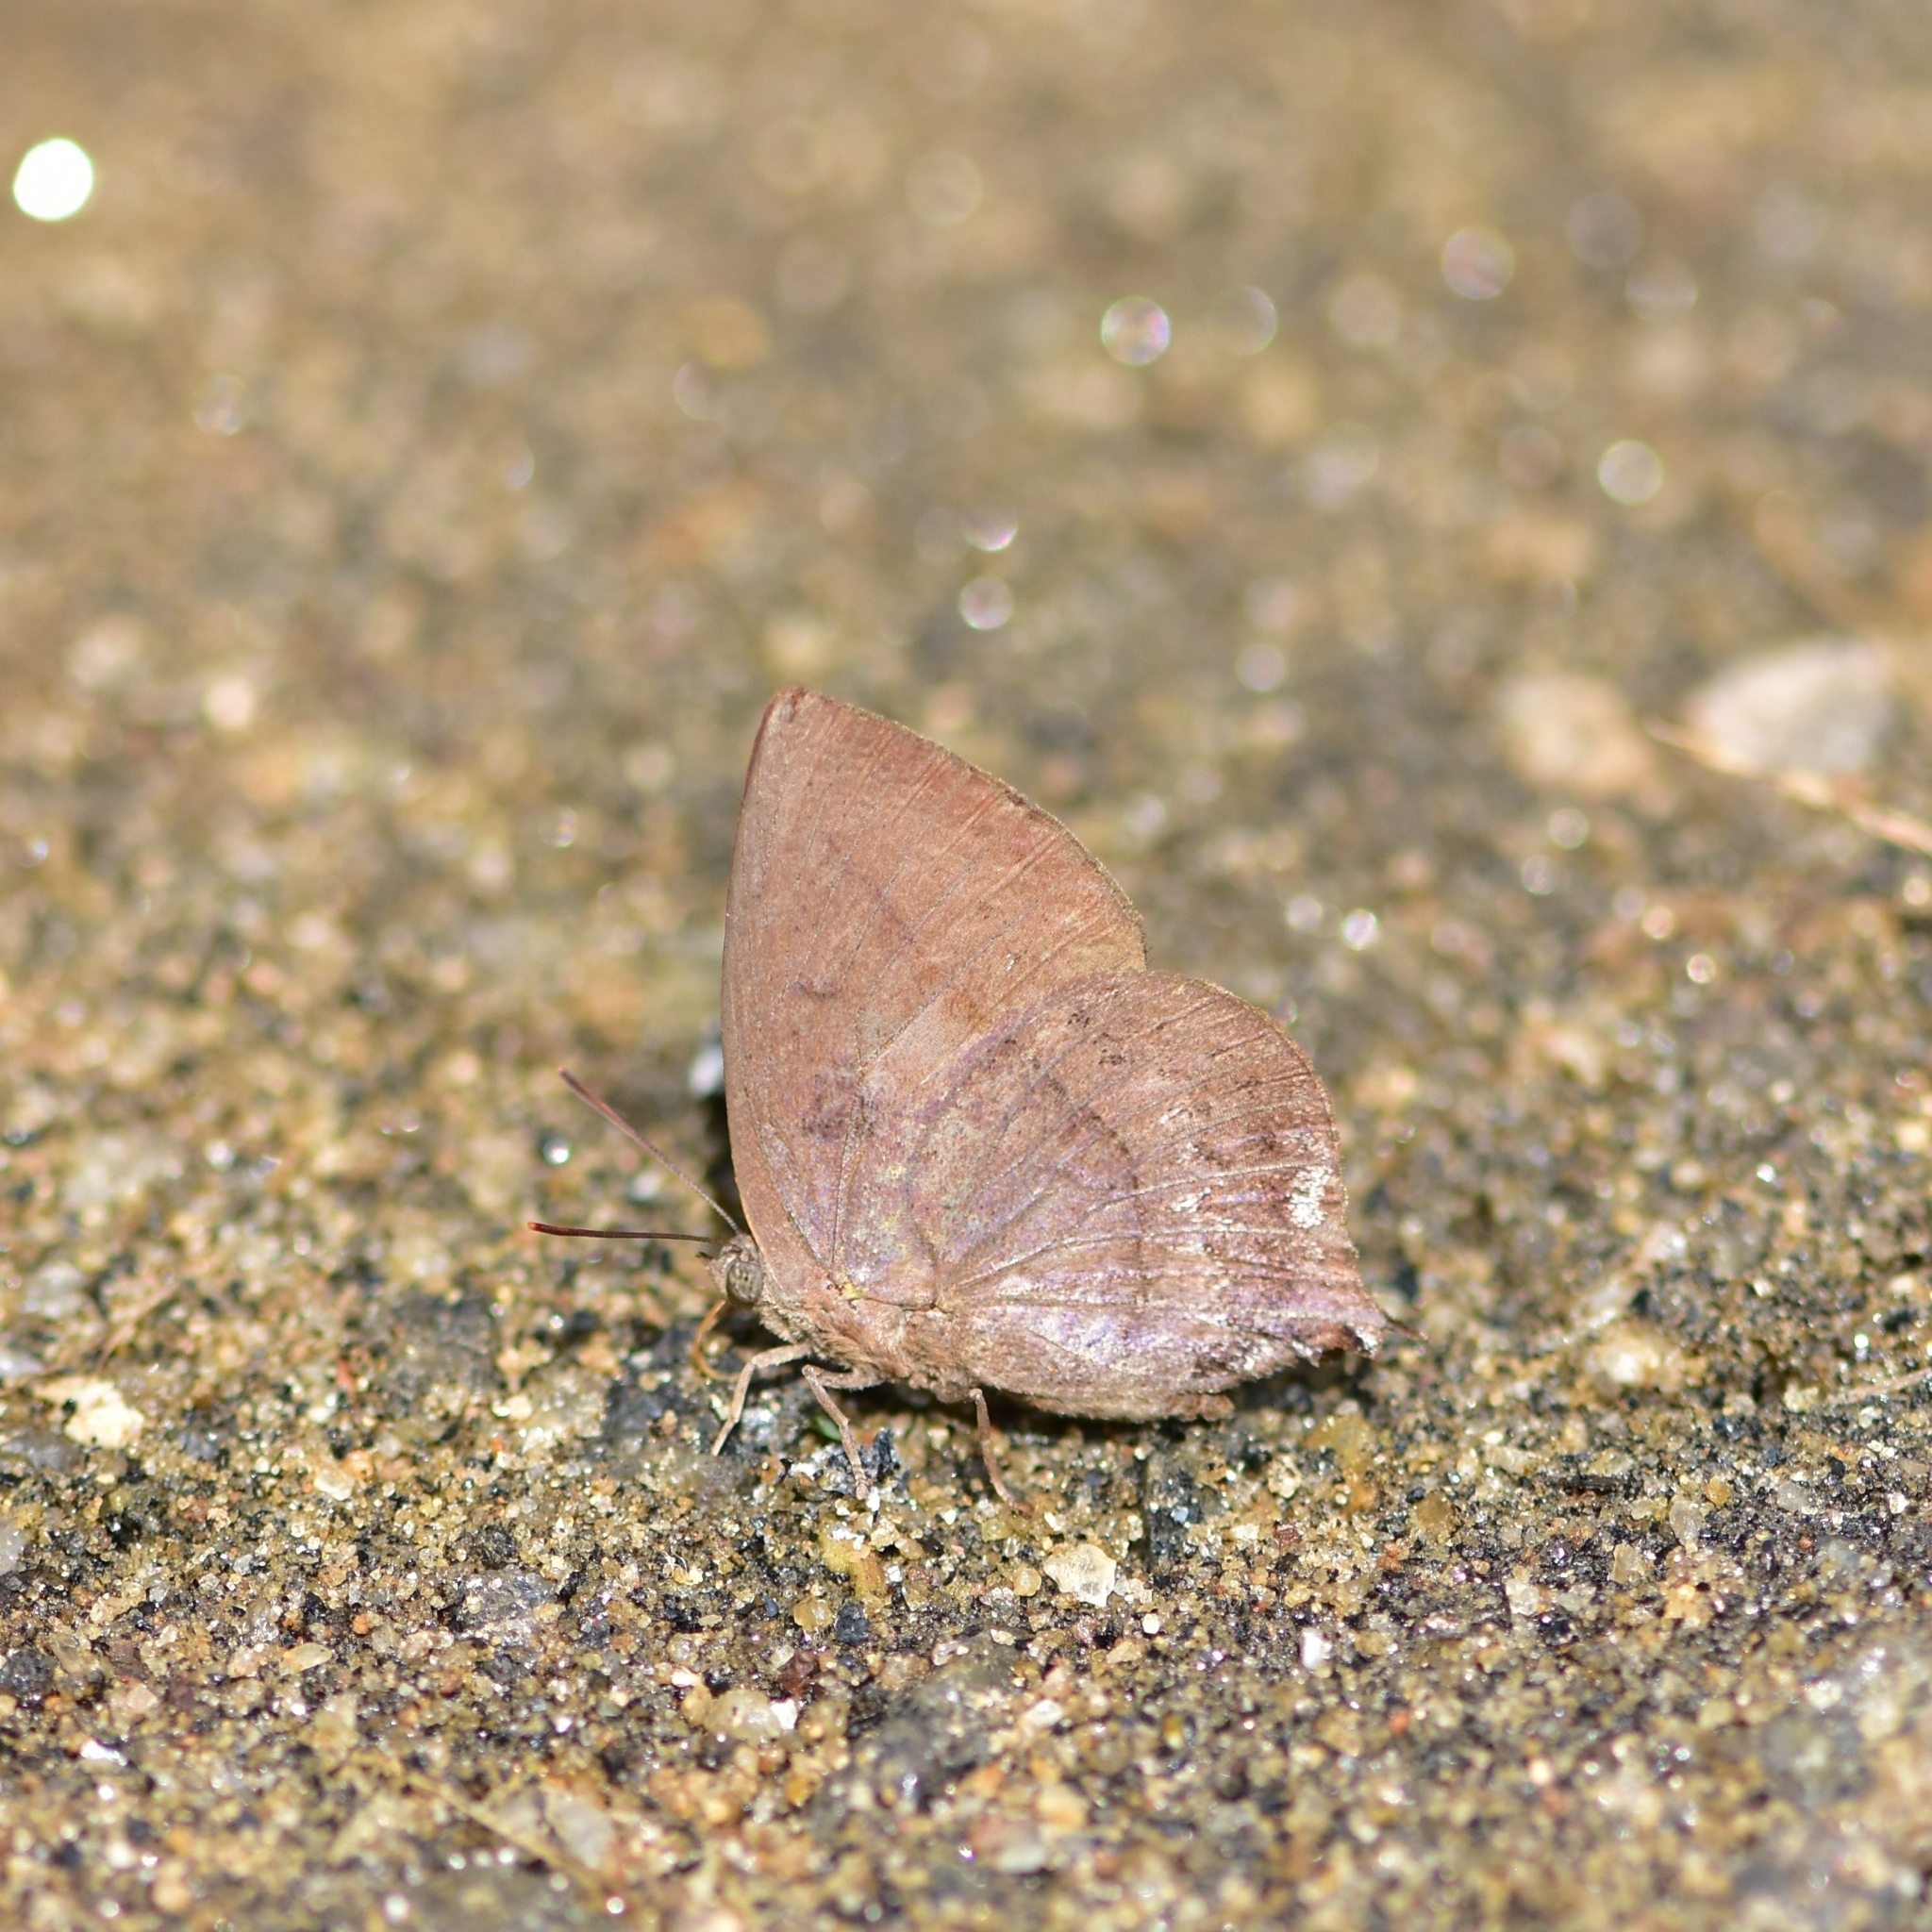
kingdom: Animalia
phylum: Arthropoda
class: Insecta
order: Lepidoptera
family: Lycaenidae
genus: Amblypodia
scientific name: Amblypodia anita
